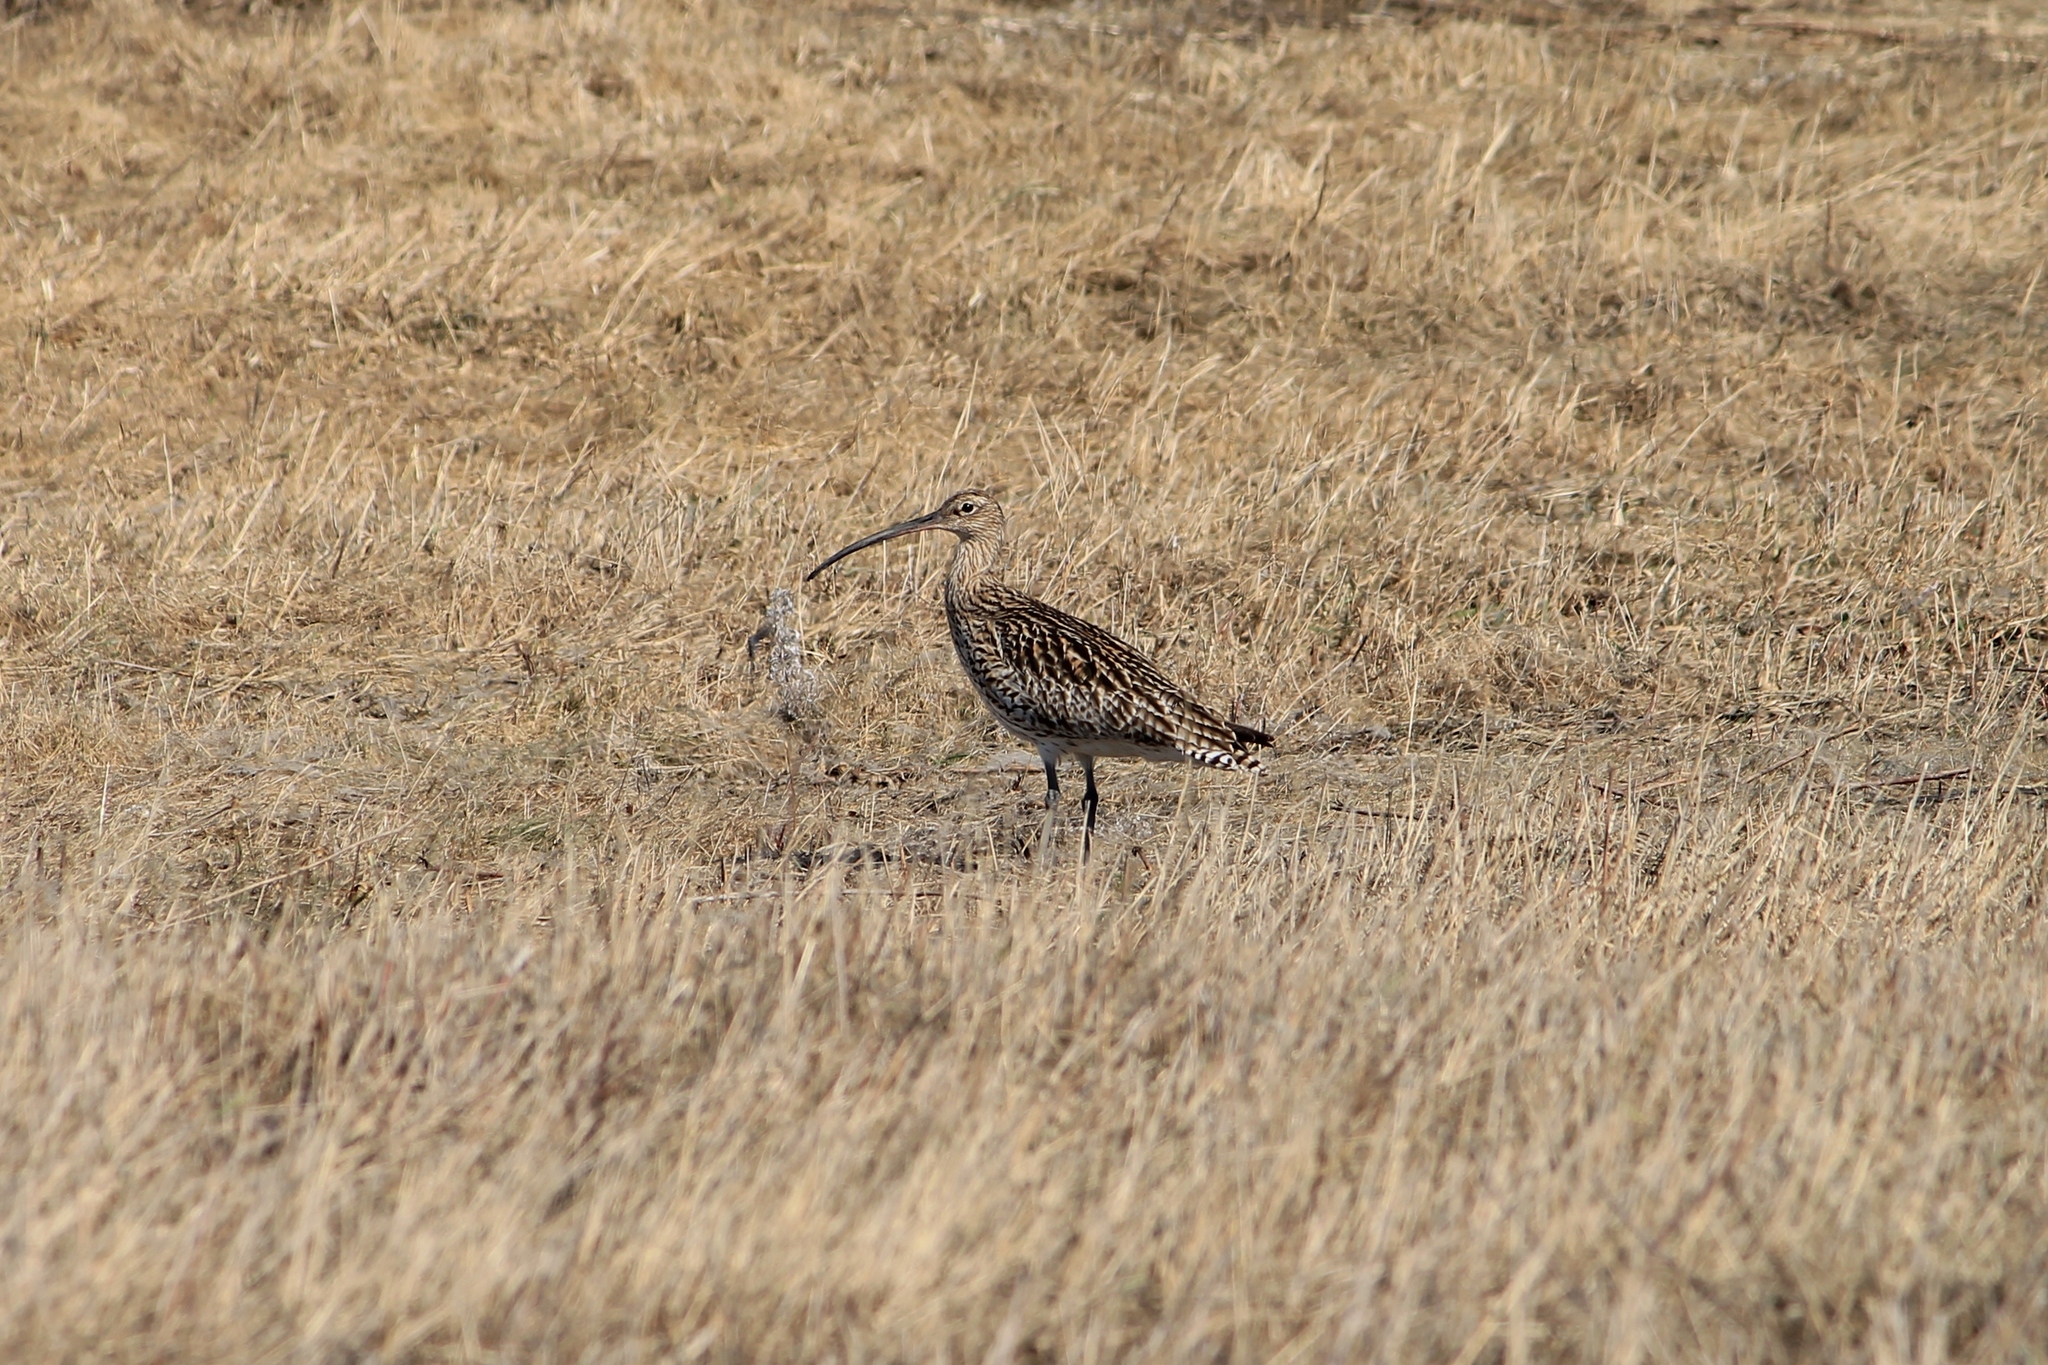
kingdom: Animalia
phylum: Chordata
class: Aves
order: Charadriiformes
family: Scolopacidae
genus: Numenius
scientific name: Numenius arquata
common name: Eurasian curlew
